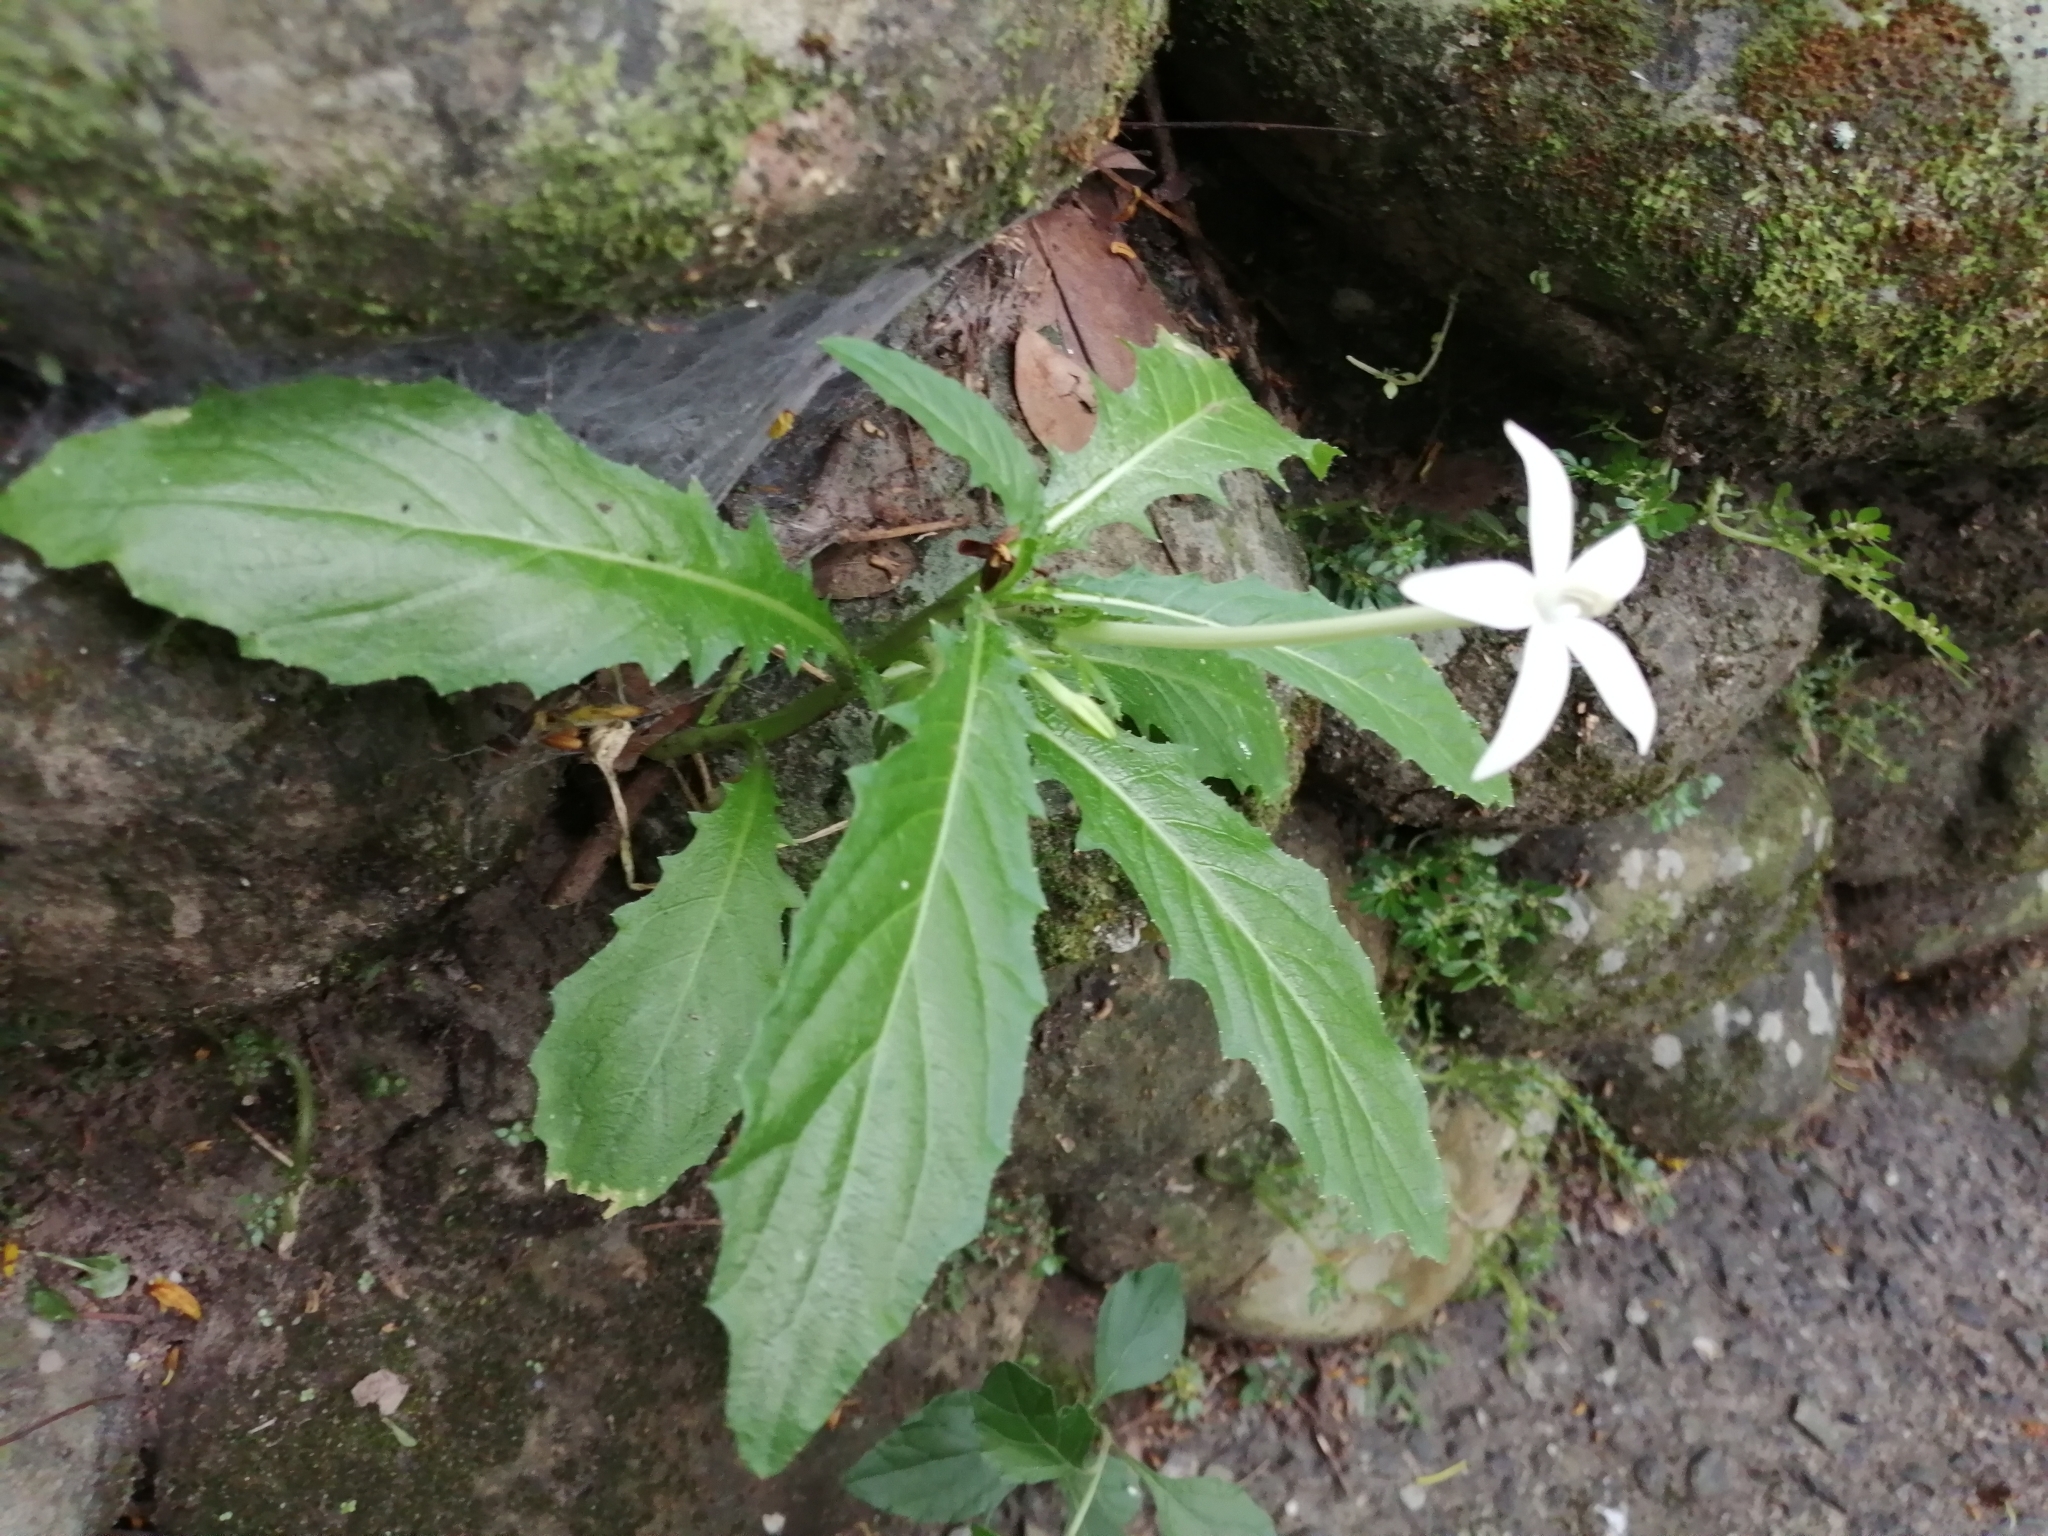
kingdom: Plantae
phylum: Tracheophyta
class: Magnoliopsida
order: Asterales
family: Campanulaceae
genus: Hippobroma
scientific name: Hippobroma longiflora
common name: Madamfate
